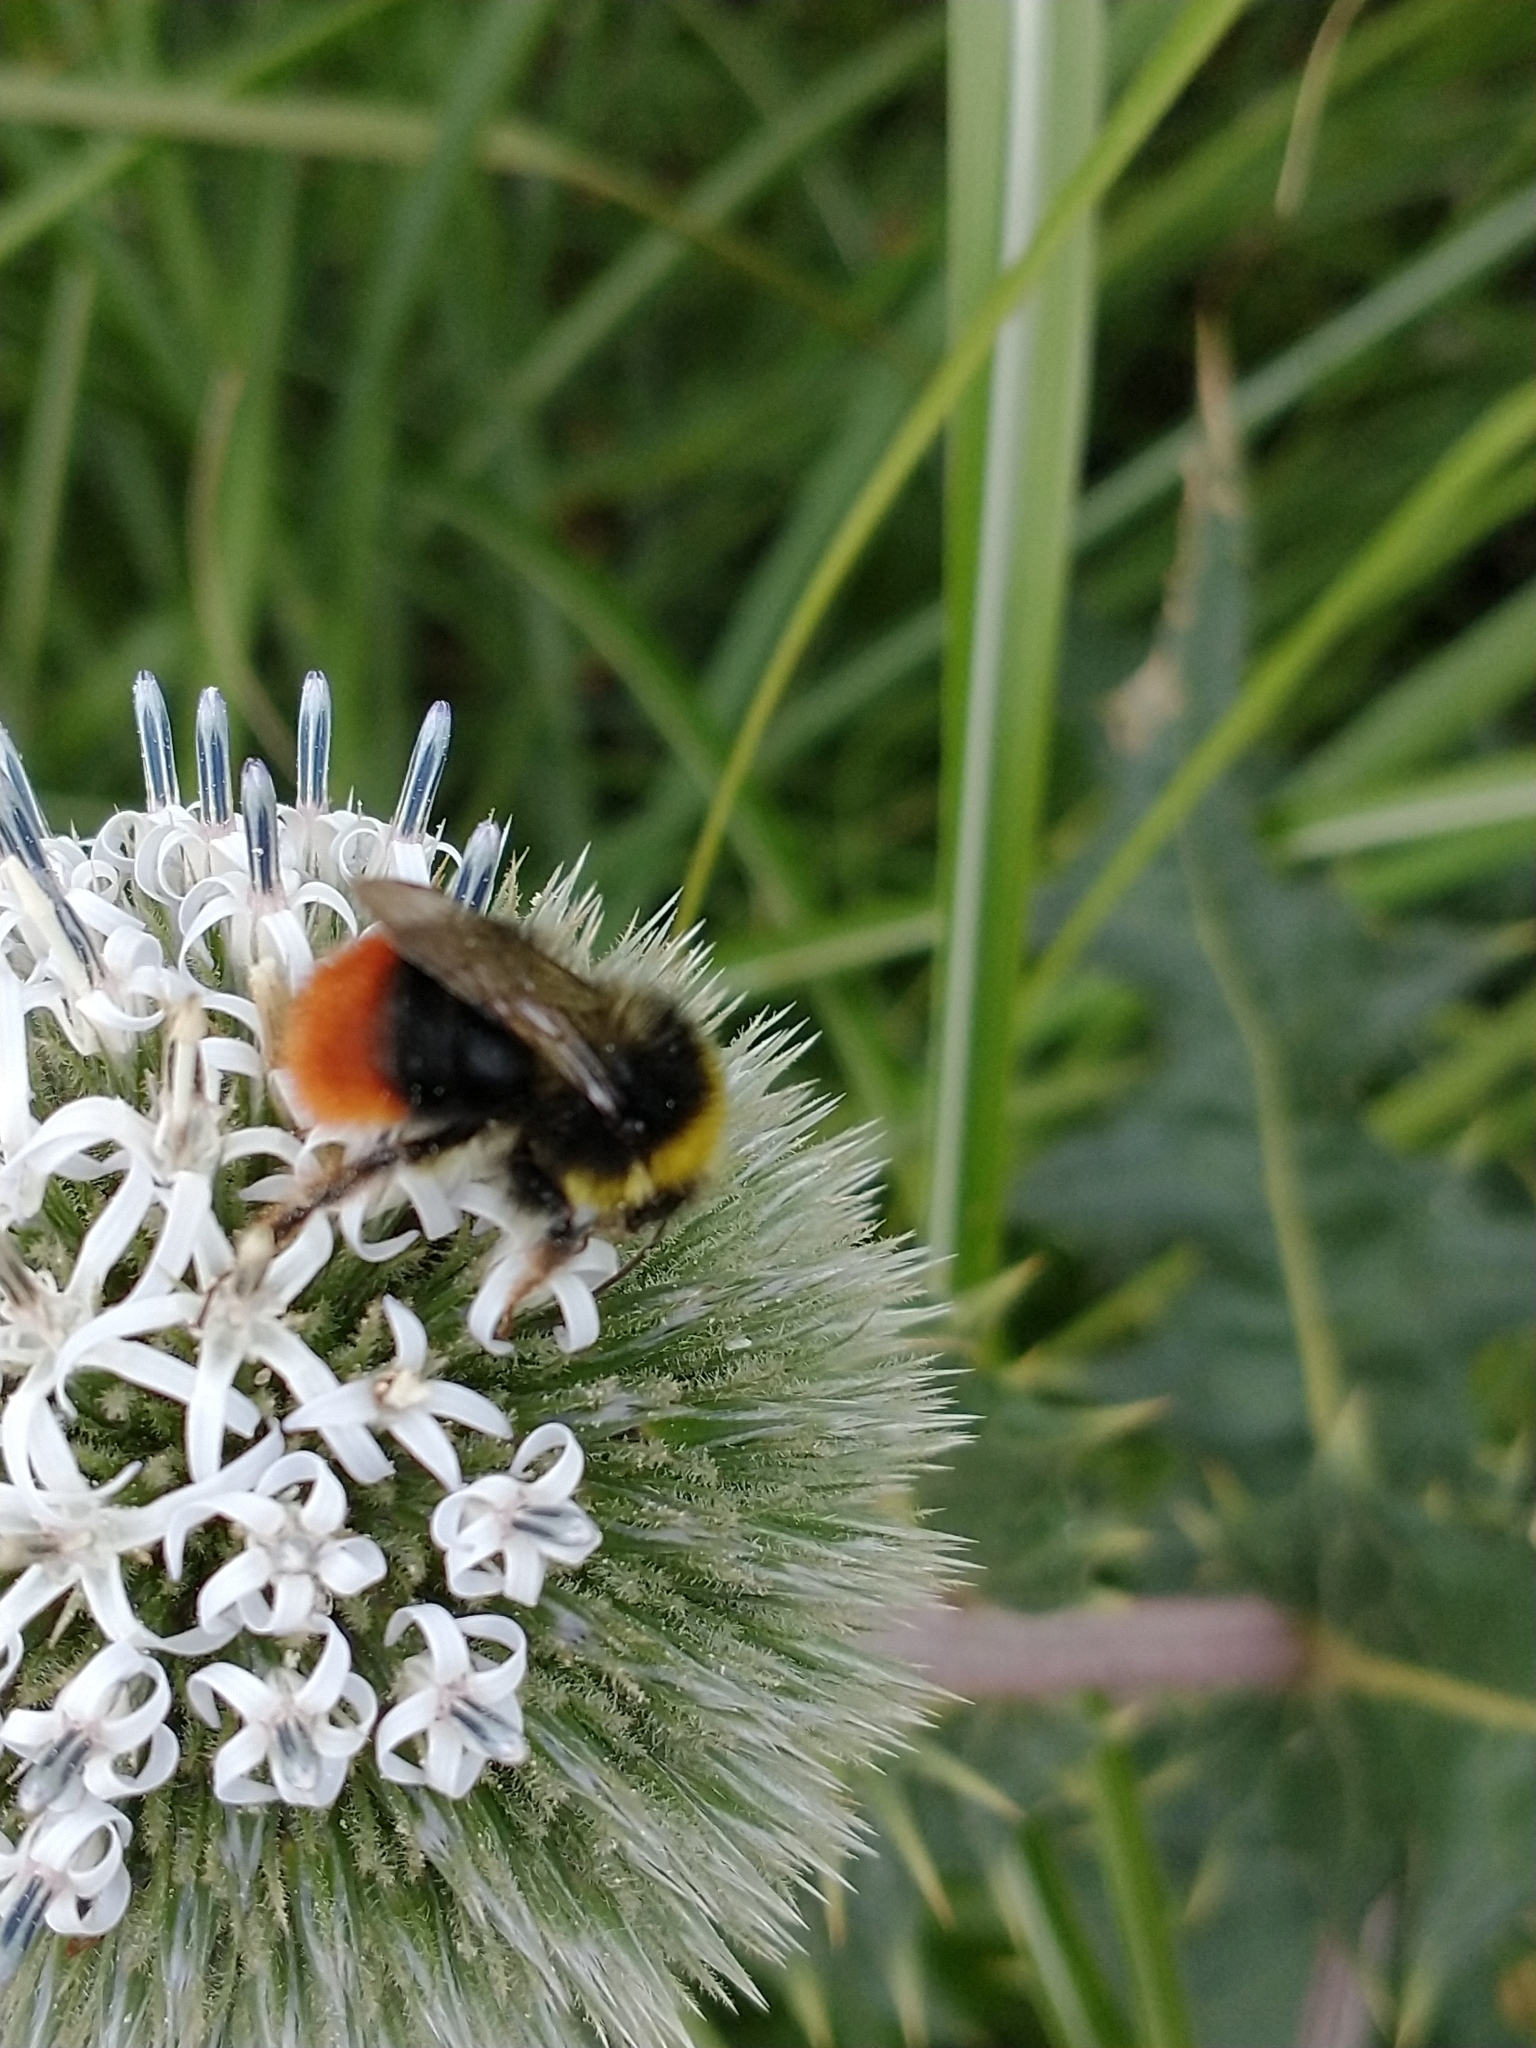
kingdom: Animalia
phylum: Arthropoda
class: Insecta
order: Hymenoptera
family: Apidae
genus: Bombus
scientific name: Bombus lapidarius
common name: Large red-tailed humble-bee
